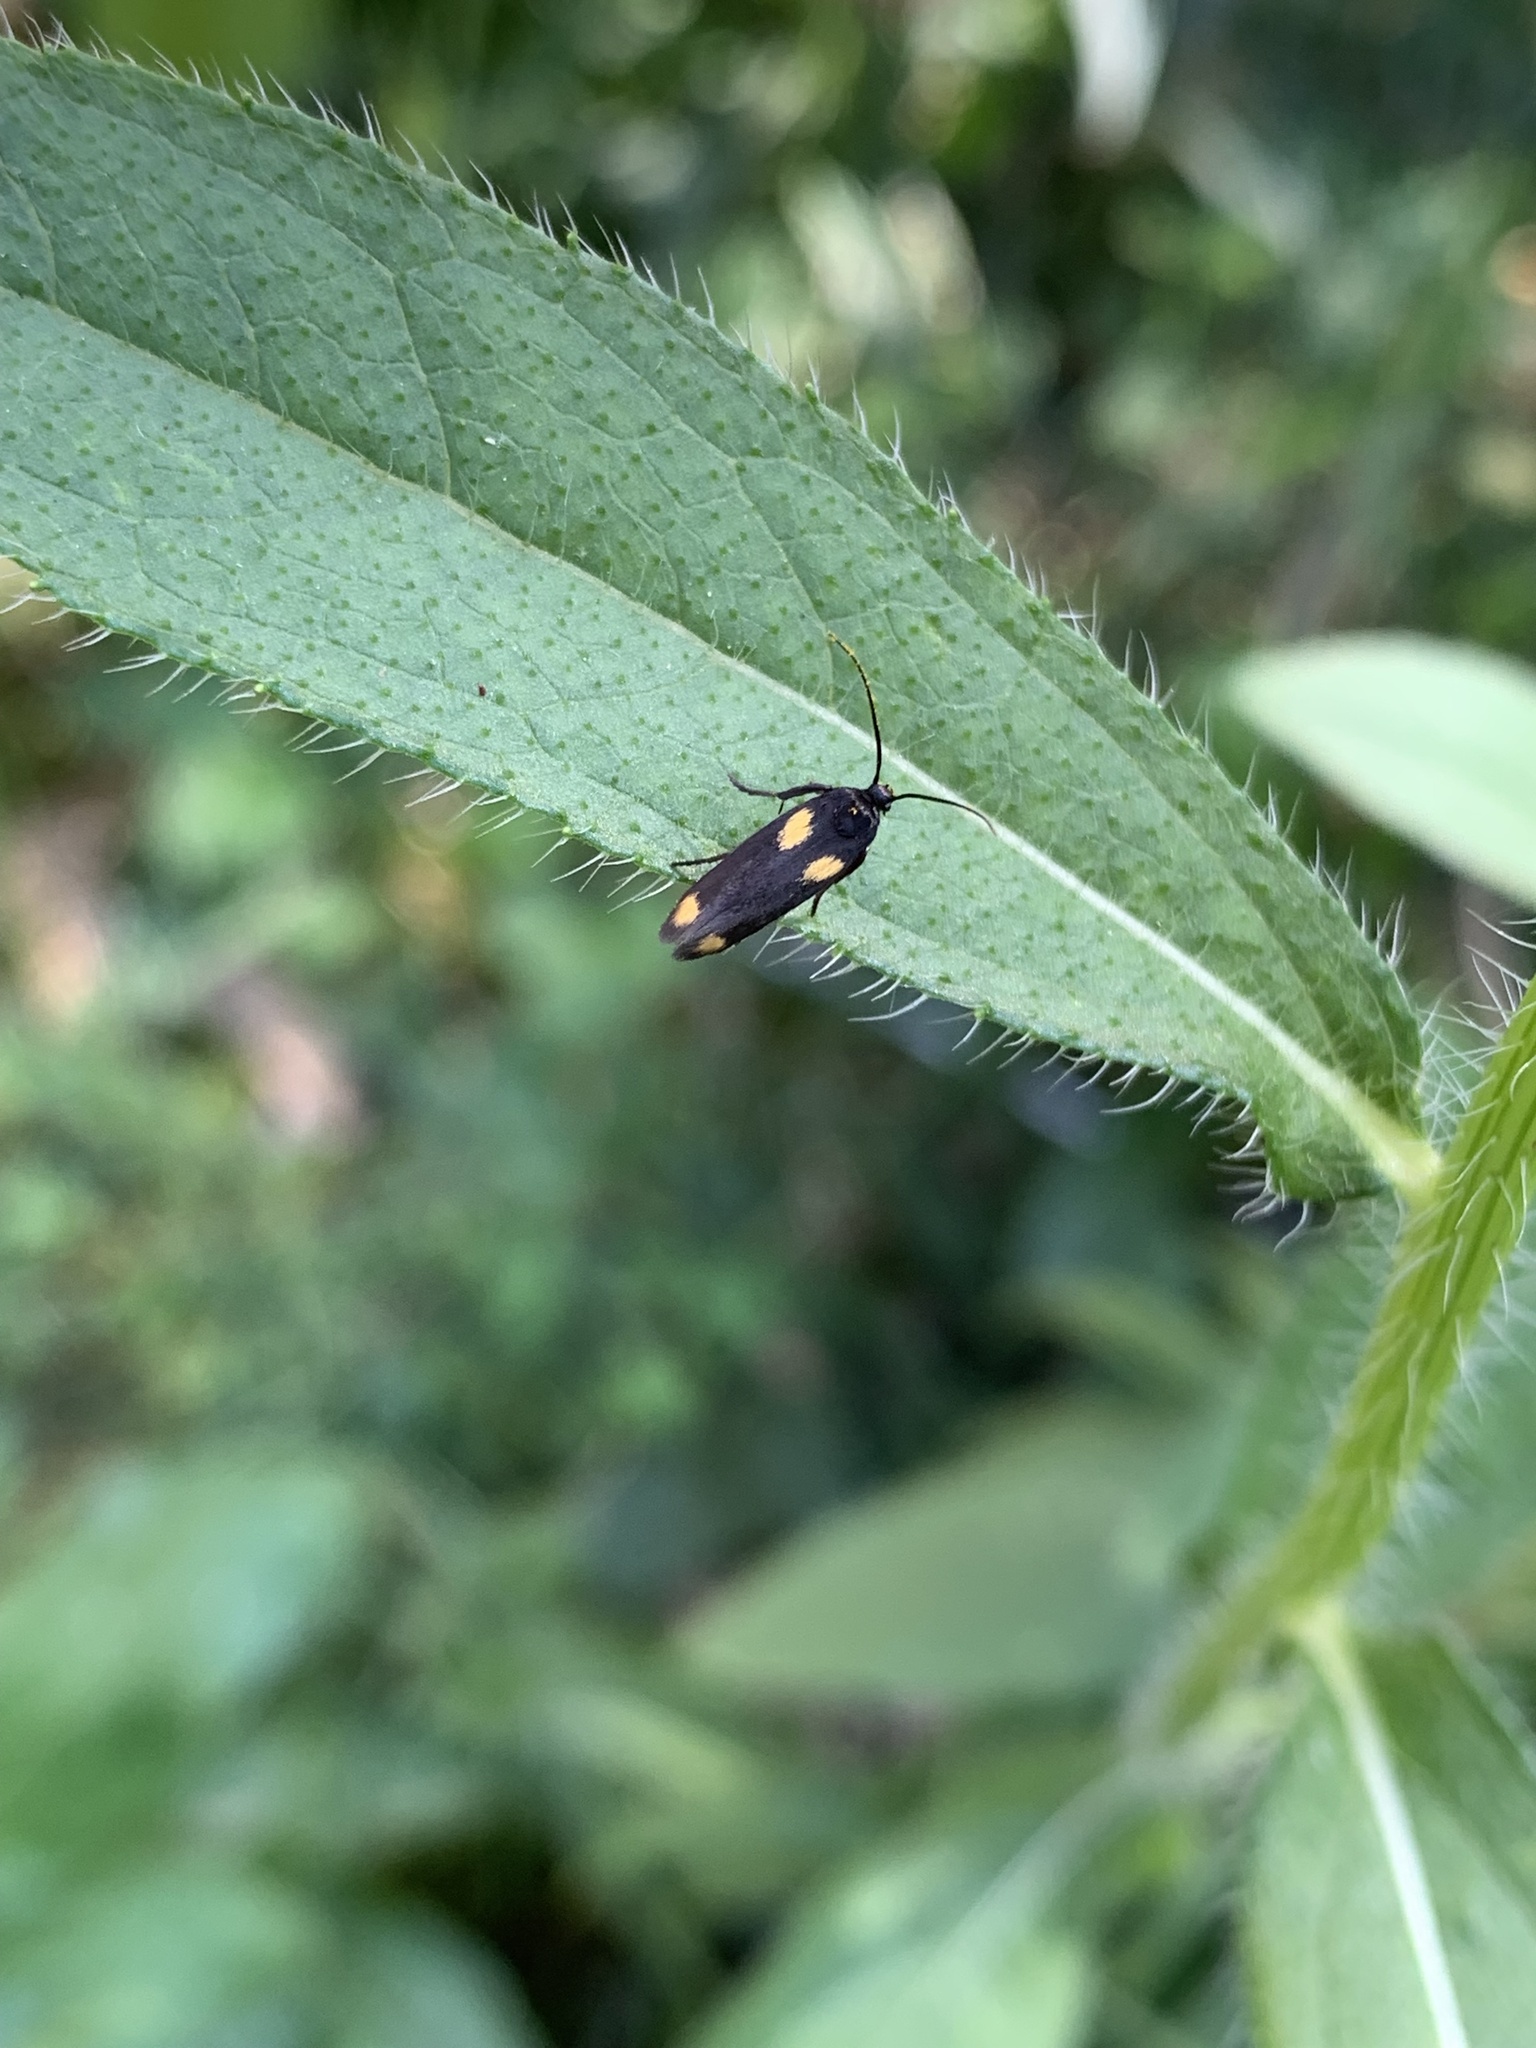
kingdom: Animalia
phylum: Arthropoda
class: Insecta
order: Lepidoptera
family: Scythrididae
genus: Scythris
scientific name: Scythris sinensis
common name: Kentish owlet
